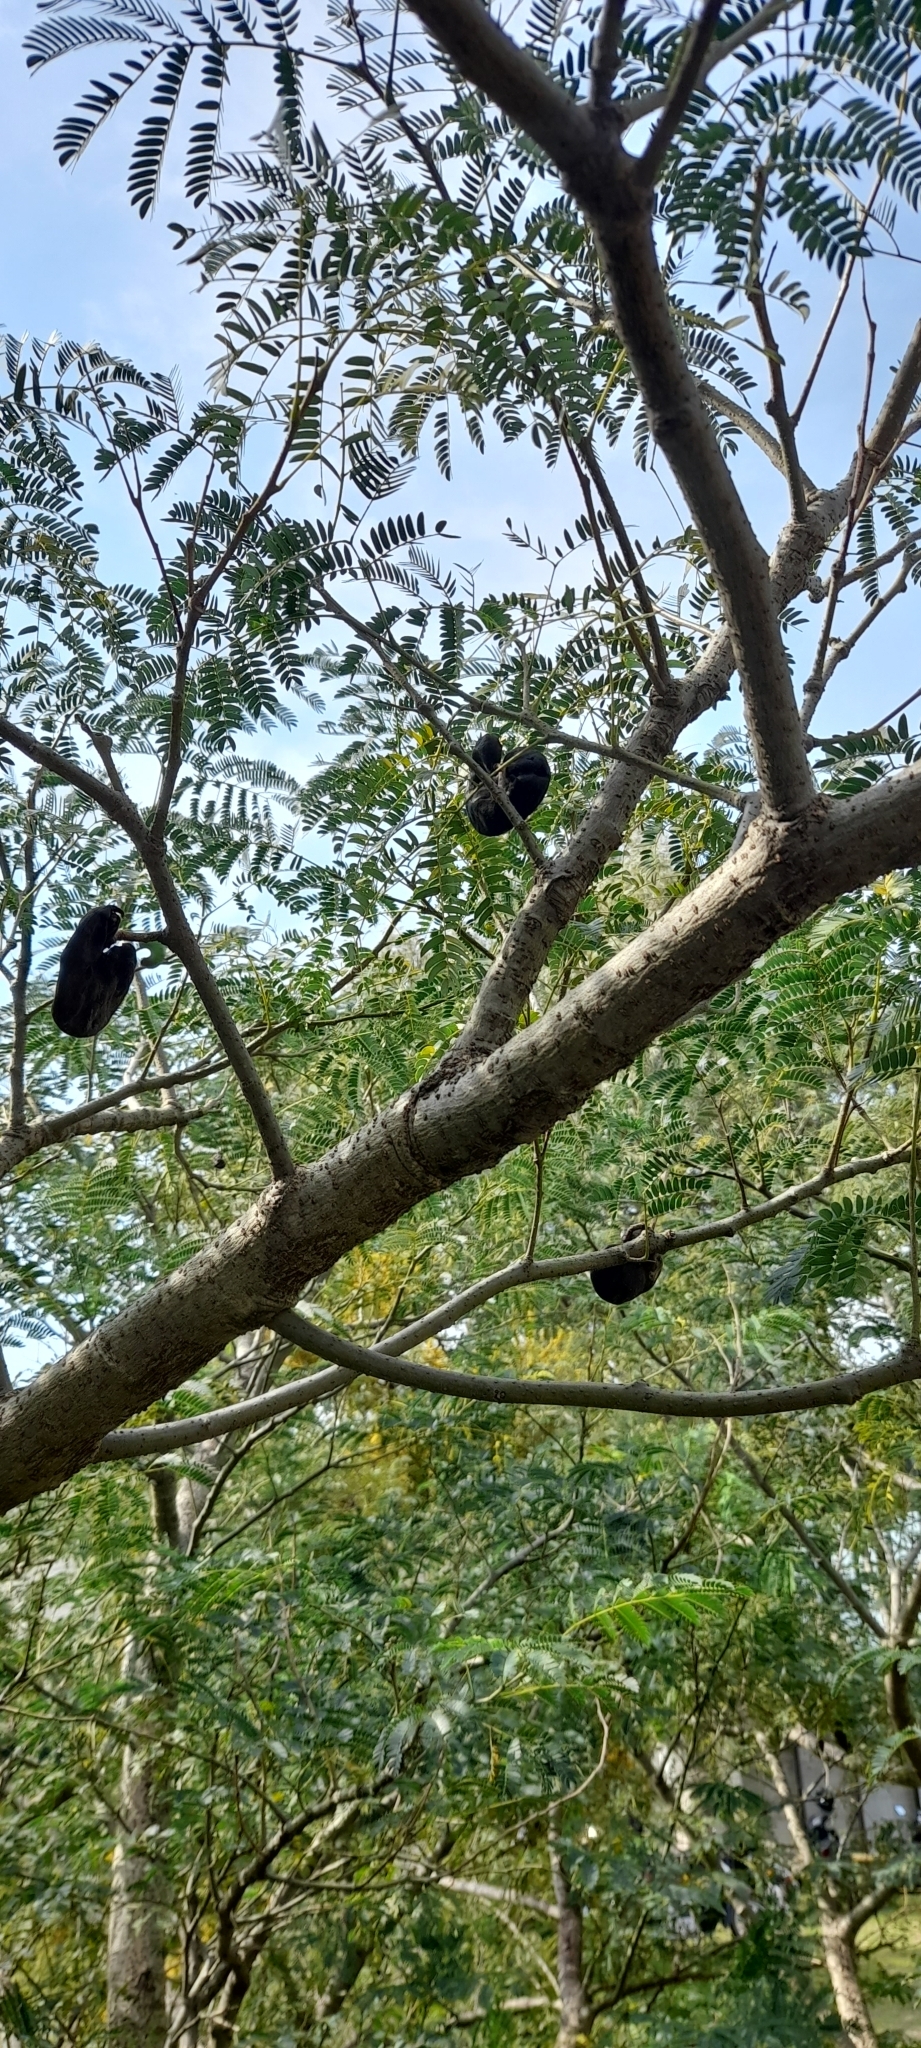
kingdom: Plantae
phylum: Tracheophyta
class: Magnoliopsida
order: Fabales
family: Fabaceae
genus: Enterolobium
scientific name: Enterolobium contortisiliquum
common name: Pacara earpod tree
